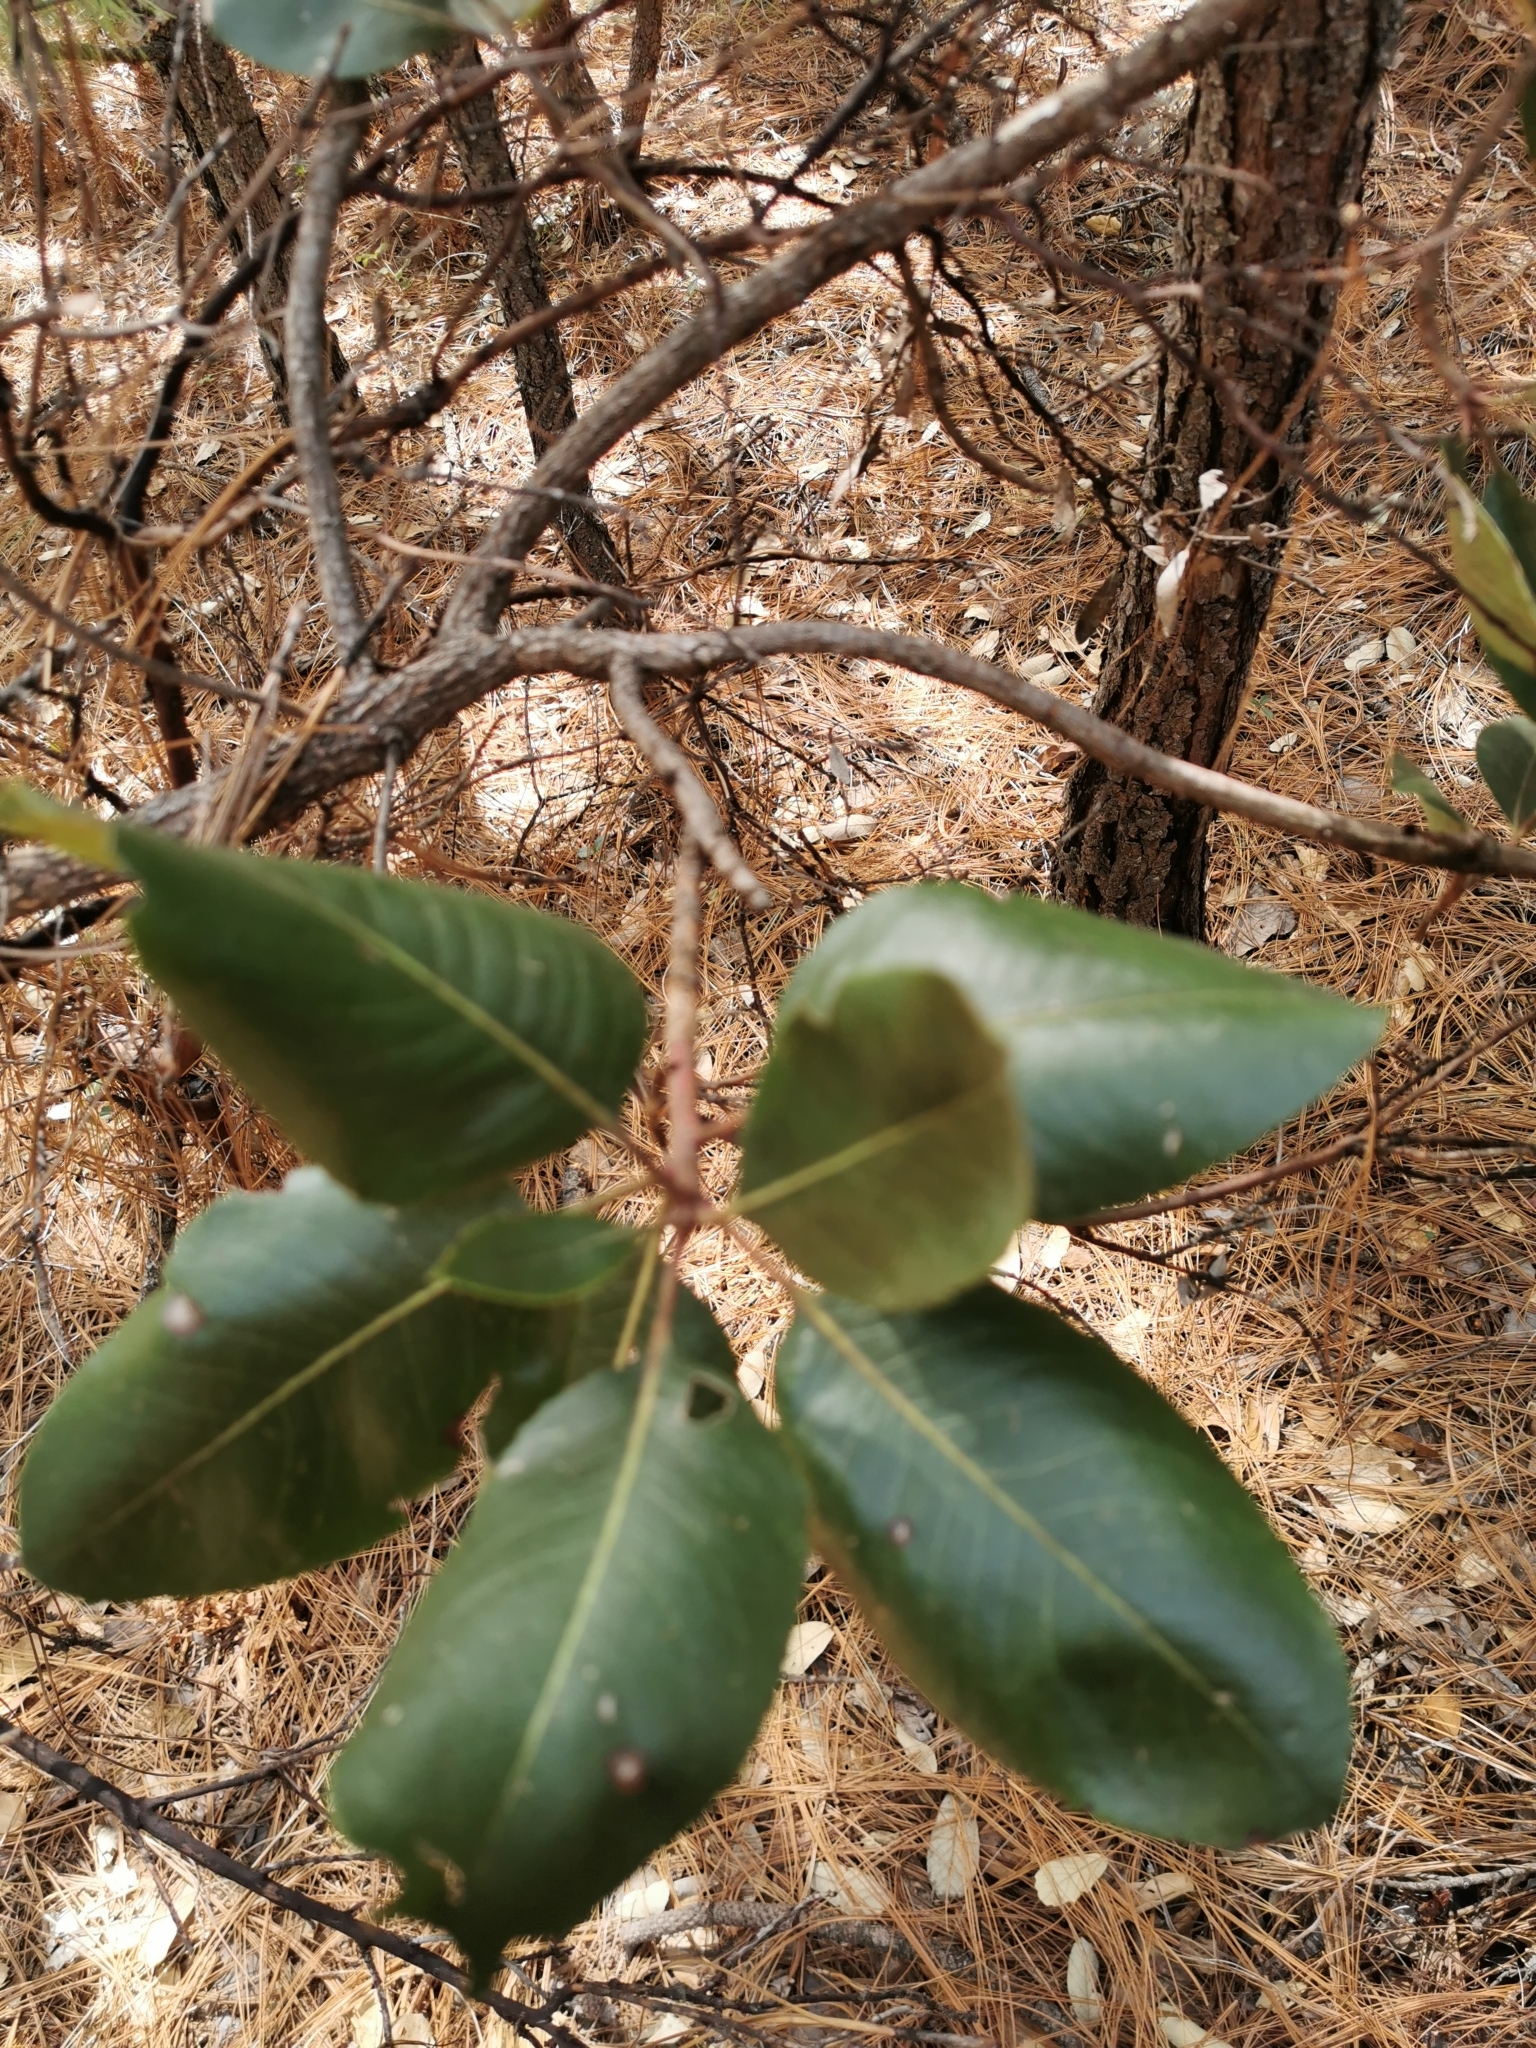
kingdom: Plantae
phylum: Tracheophyta
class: Magnoliopsida
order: Ericales
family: Ericaceae
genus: Arbutus
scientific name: Arbutus madrensis
